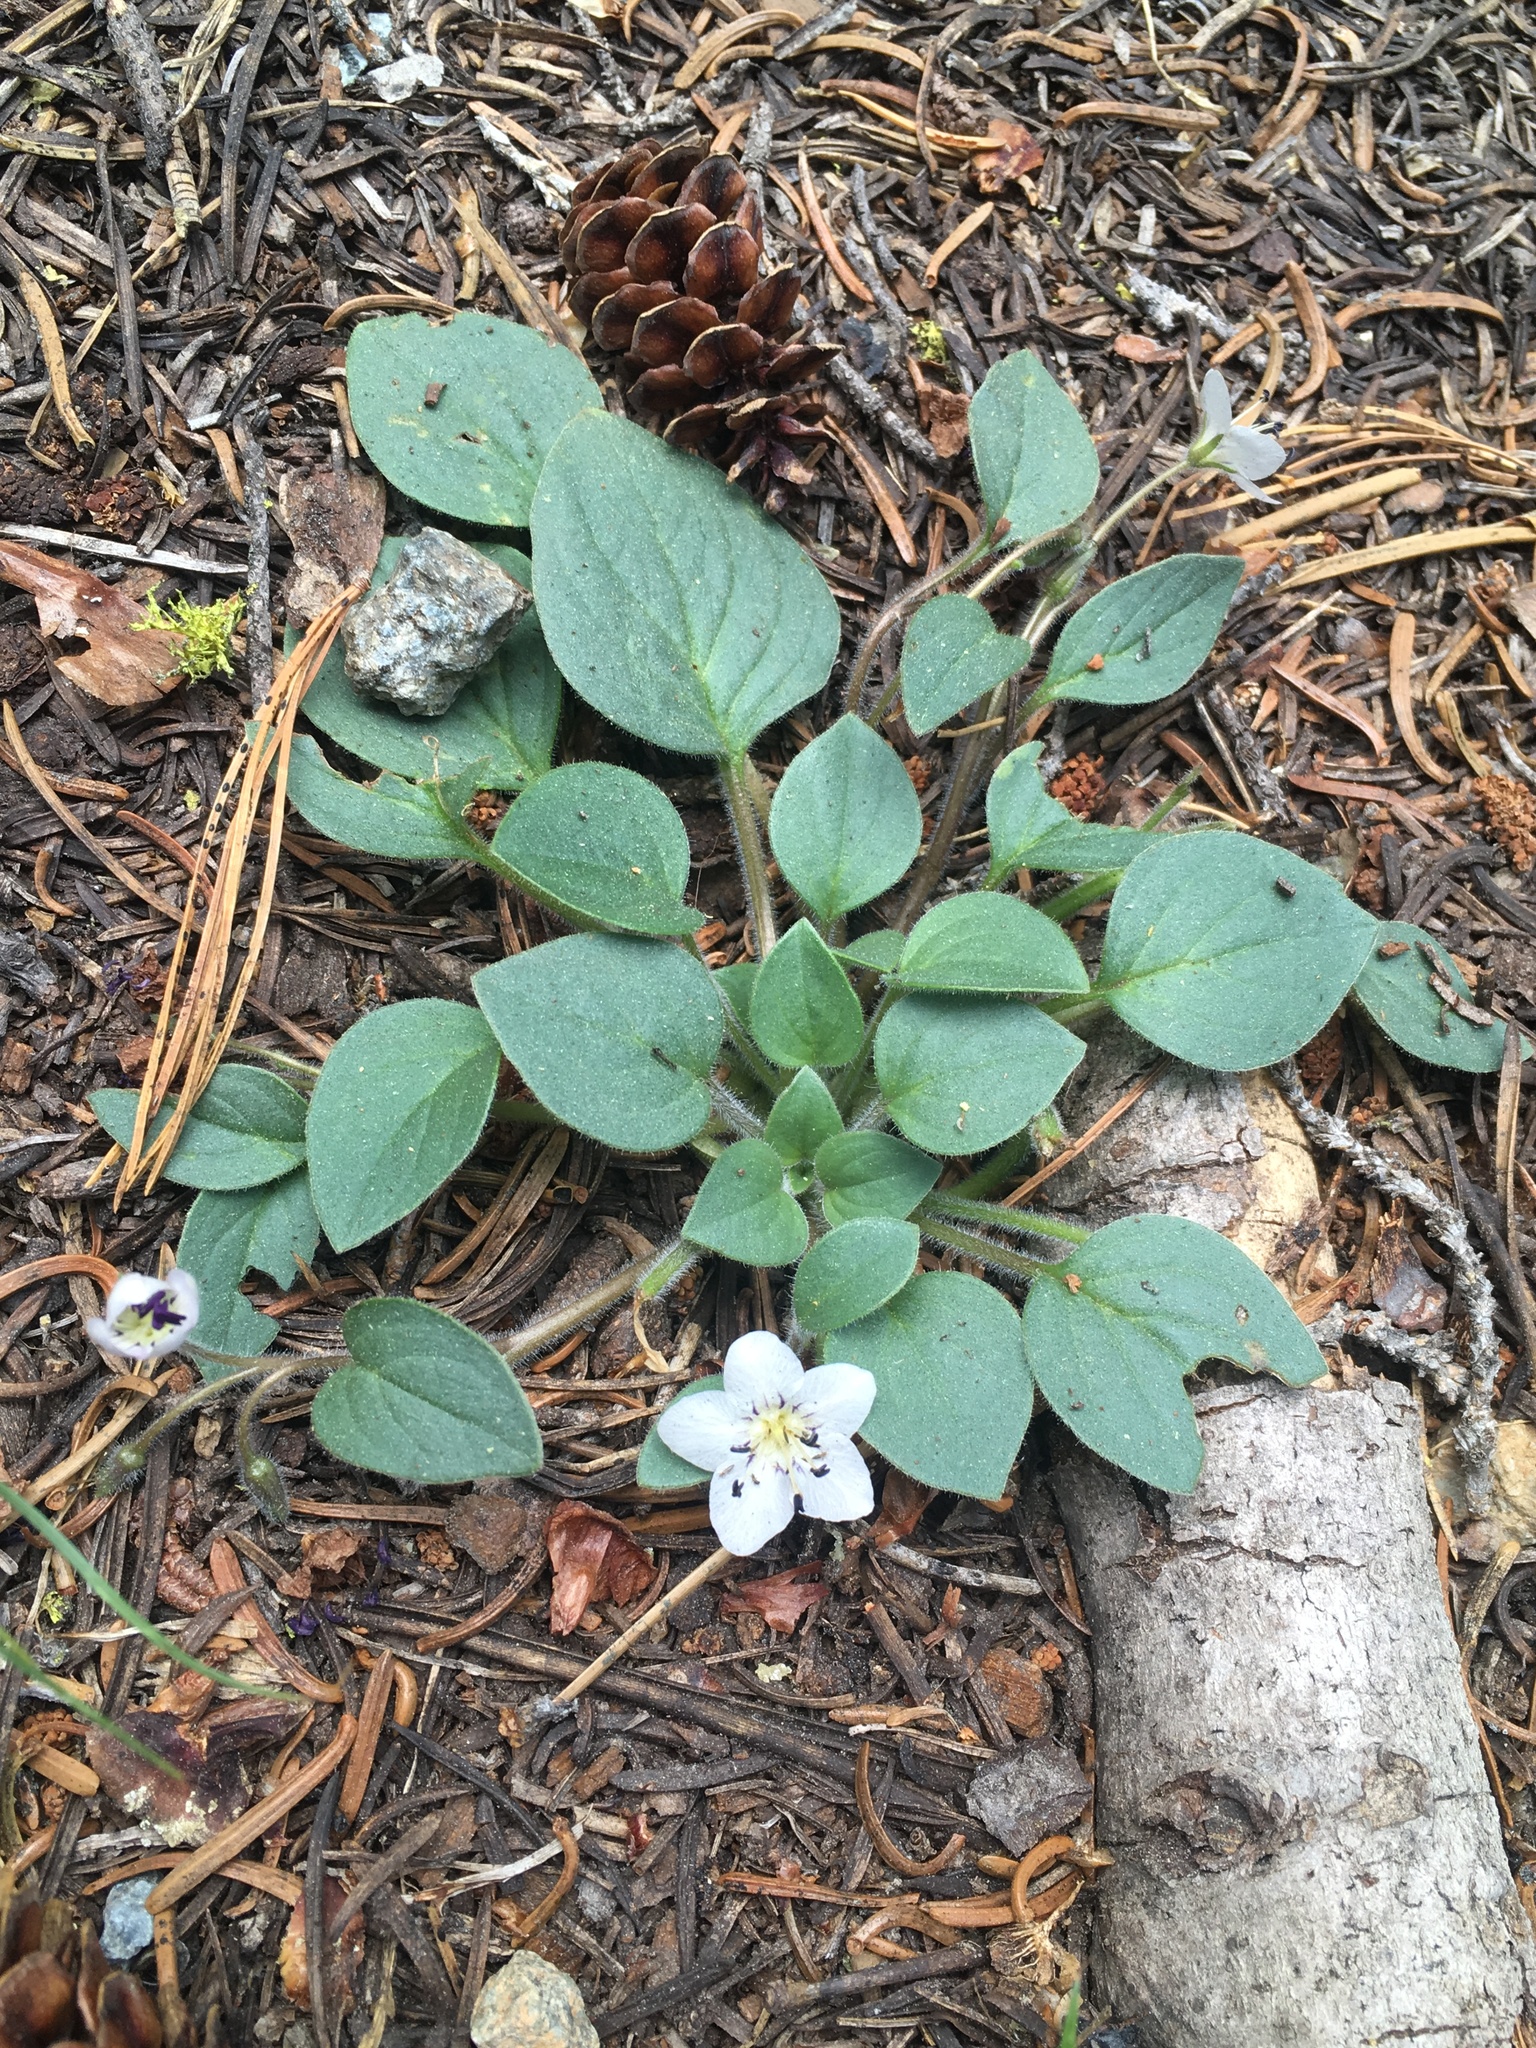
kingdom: Plantae
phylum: Tracheophyta
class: Magnoliopsida
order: Boraginales
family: Hydrophyllaceae
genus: Howellanthus
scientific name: Howellanthus dalesianus
